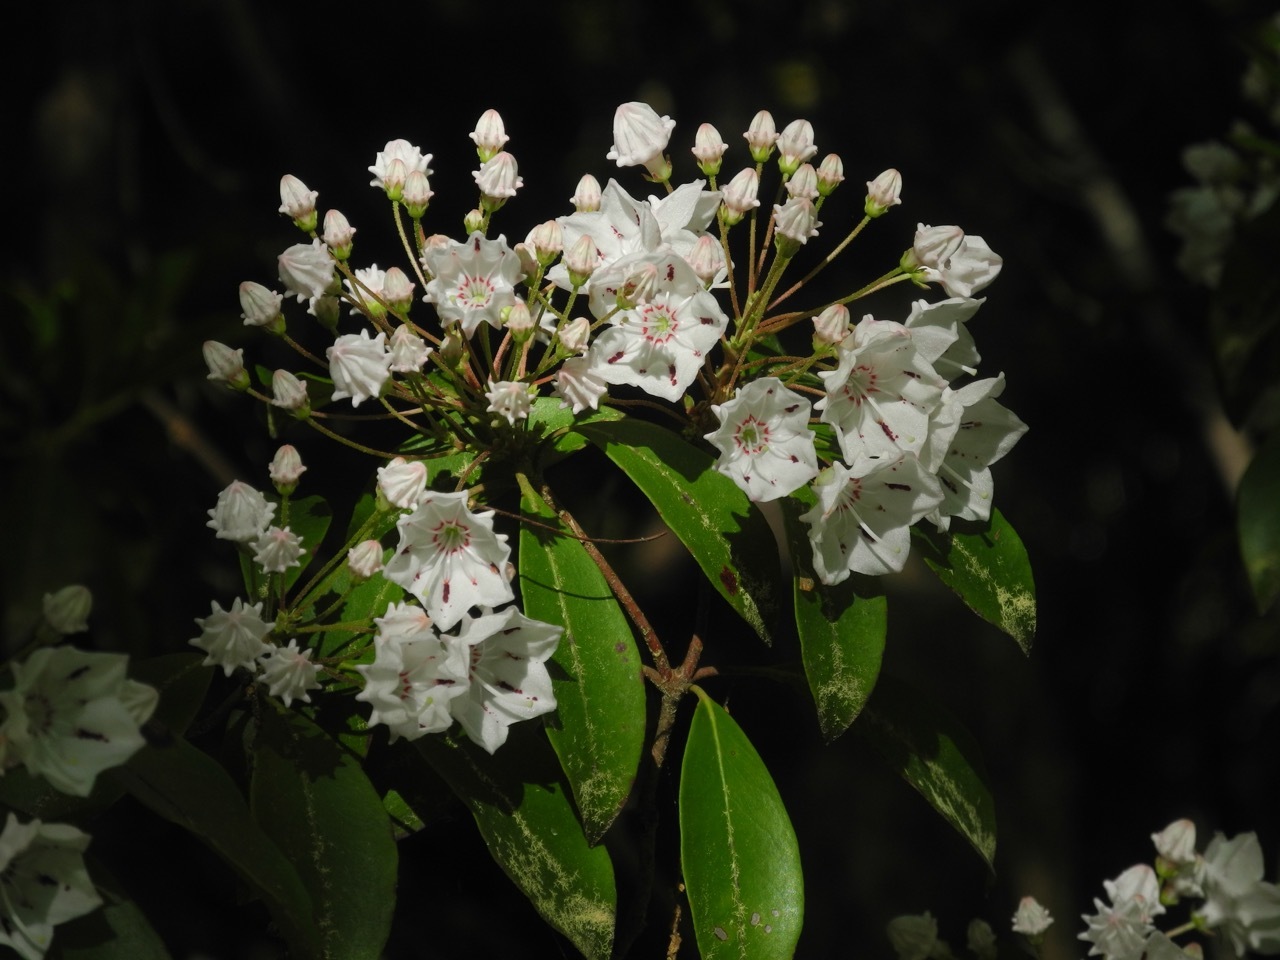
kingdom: Plantae
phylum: Tracheophyta
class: Magnoliopsida
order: Ericales
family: Ericaceae
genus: Kalmia
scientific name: Kalmia latifolia
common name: Mountain-laurel
